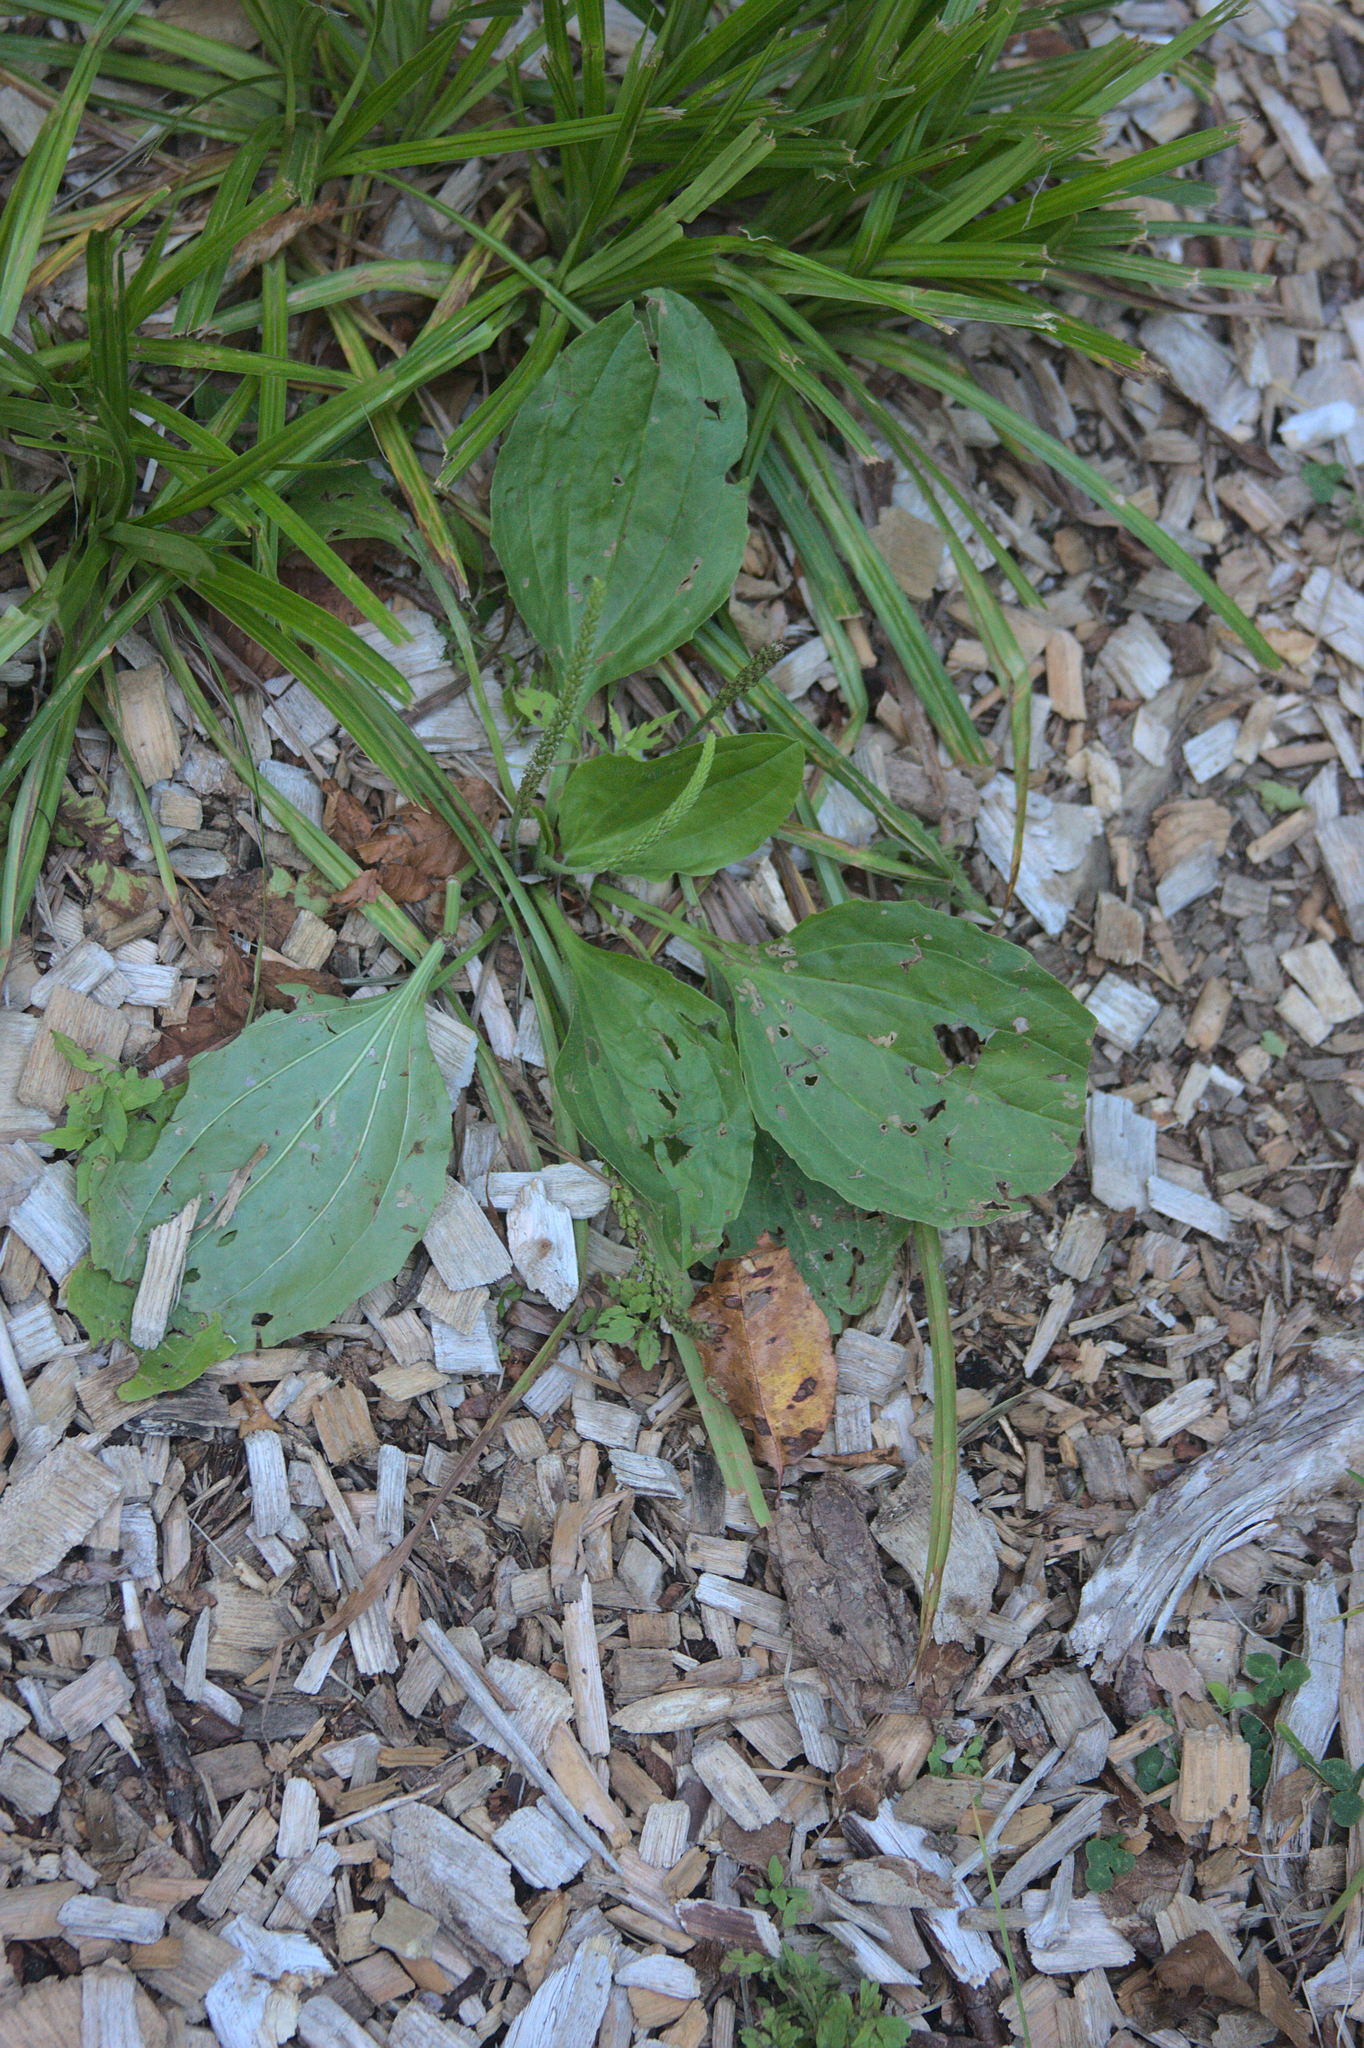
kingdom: Plantae
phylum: Tracheophyta
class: Magnoliopsida
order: Lamiales
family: Plantaginaceae
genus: Plantago
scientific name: Plantago major
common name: Common plantain
